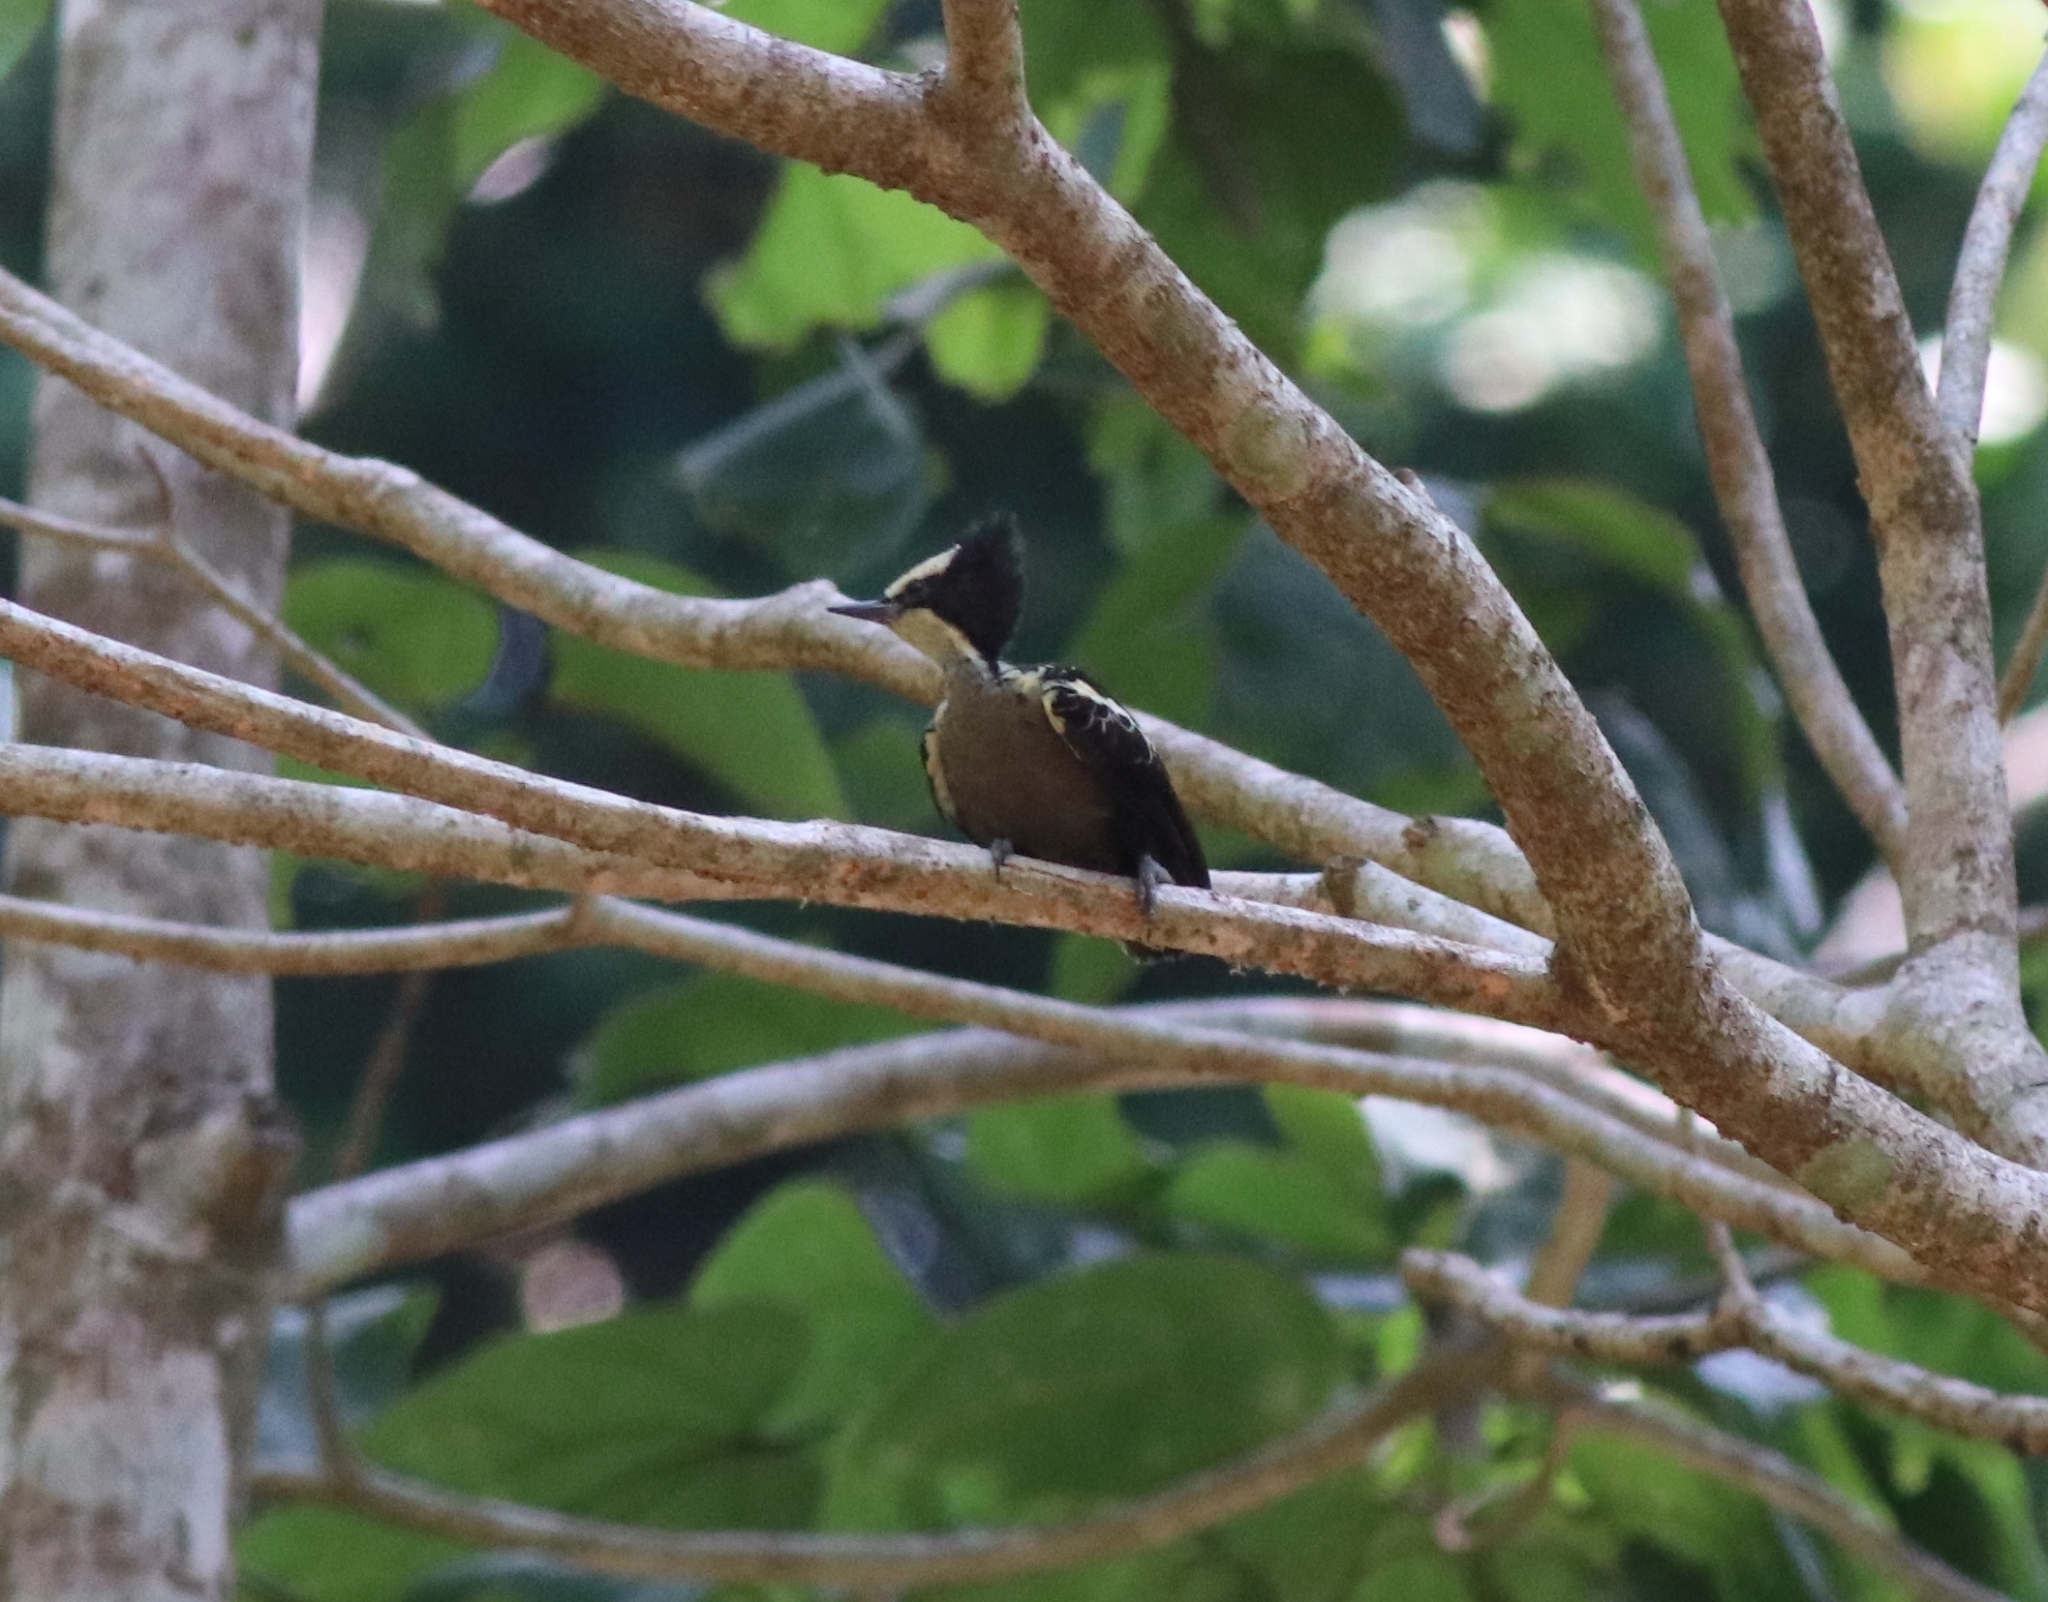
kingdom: Animalia
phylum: Chordata
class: Aves
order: Piciformes
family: Picidae
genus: Hemicircus
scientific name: Hemicircus canente
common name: Heart-spotted woodpecker
